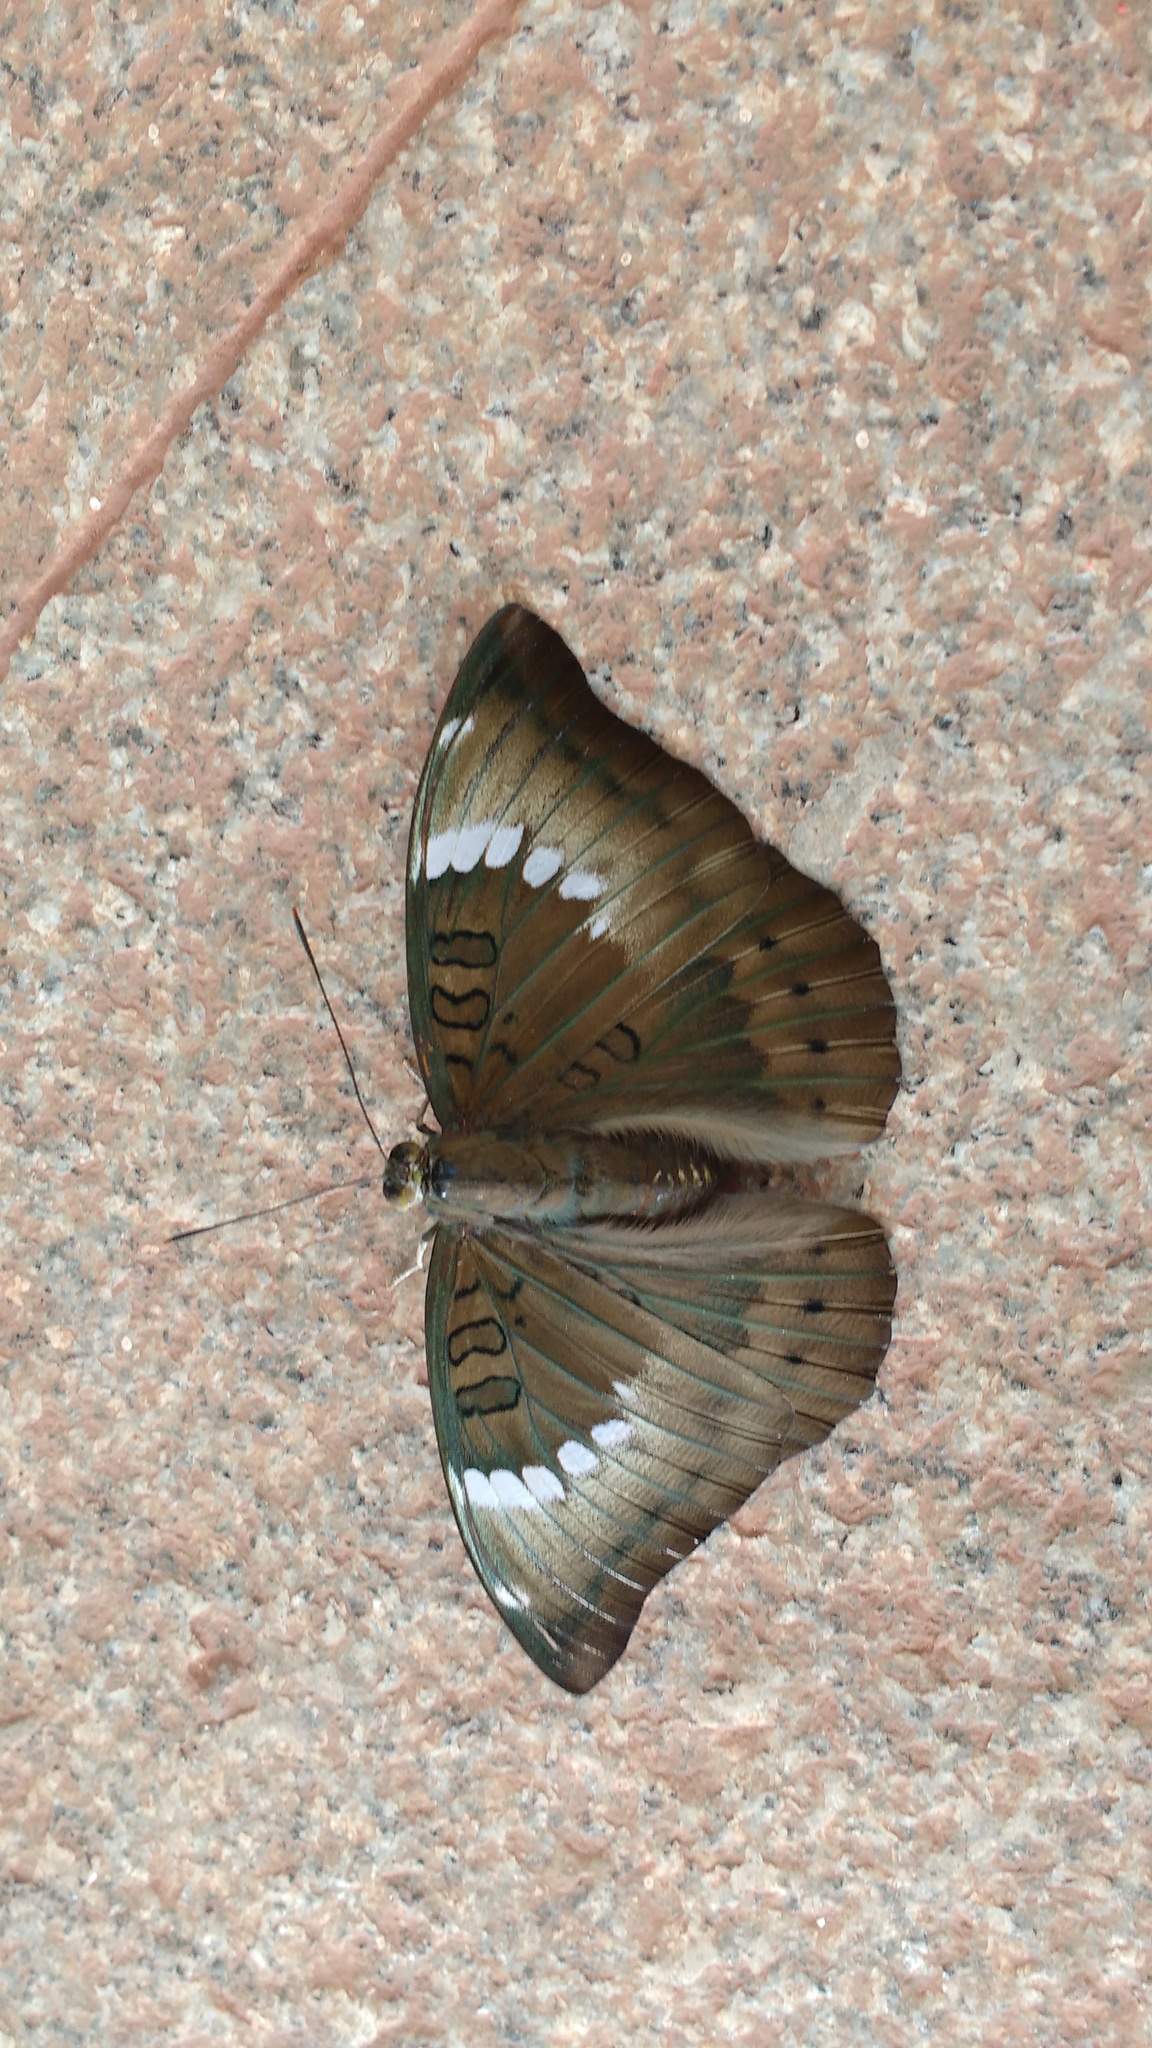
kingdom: Animalia
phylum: Arthropoda
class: Insecta
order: Lepidoptera
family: Nymphalidae
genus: Euthalia
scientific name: Euthalia aconthea
